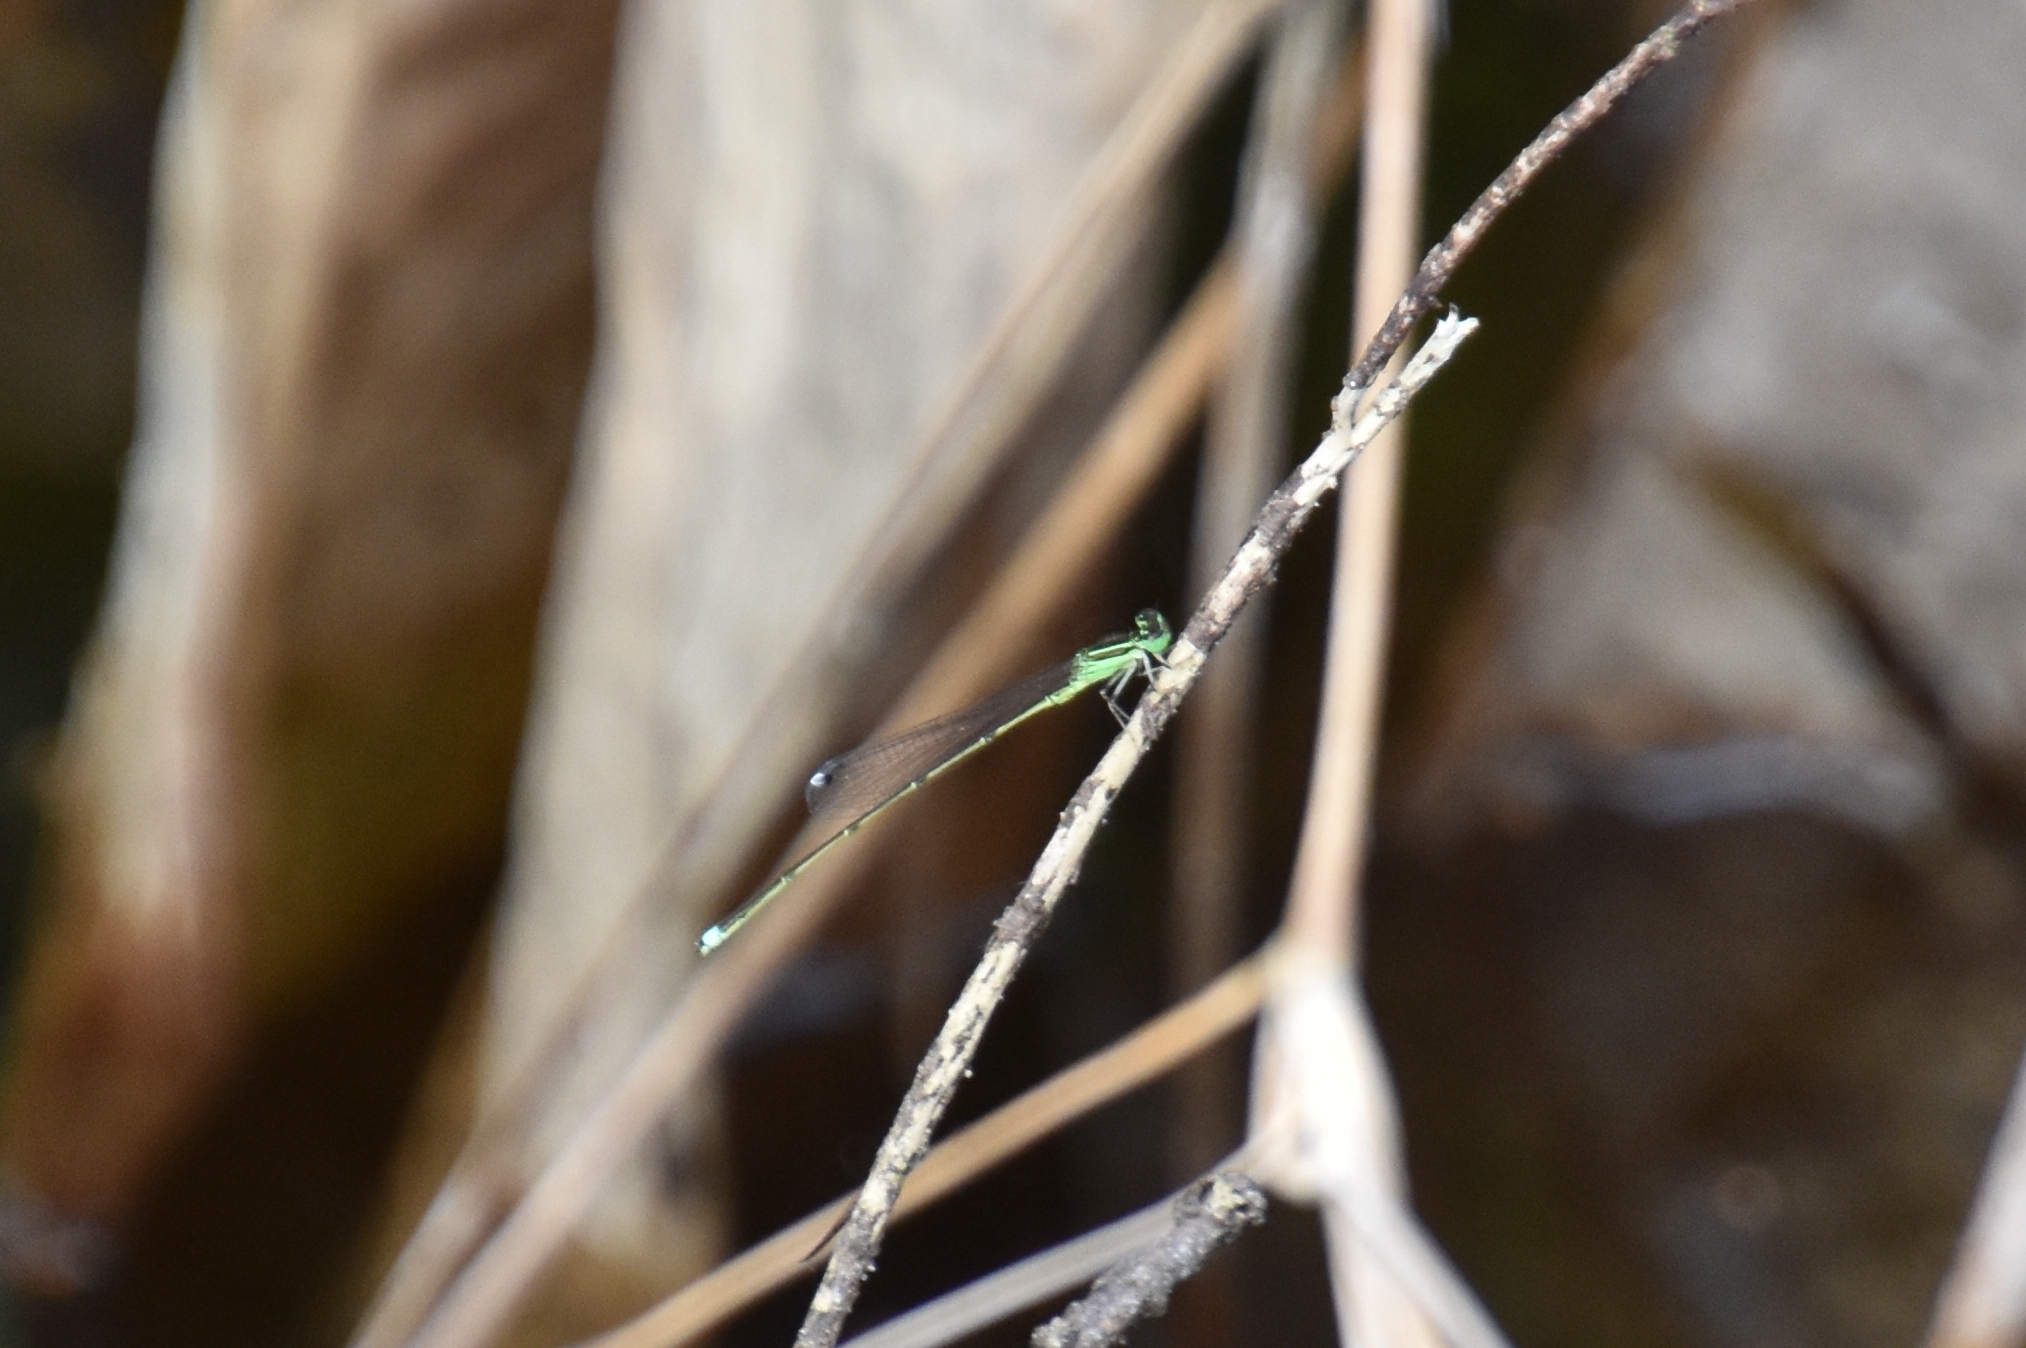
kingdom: Animalia
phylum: Arthropoda
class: Insecta
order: Odonata
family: Coenagrionidae
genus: Ischnura
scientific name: Ischnura prognata
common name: Furtive forktail
